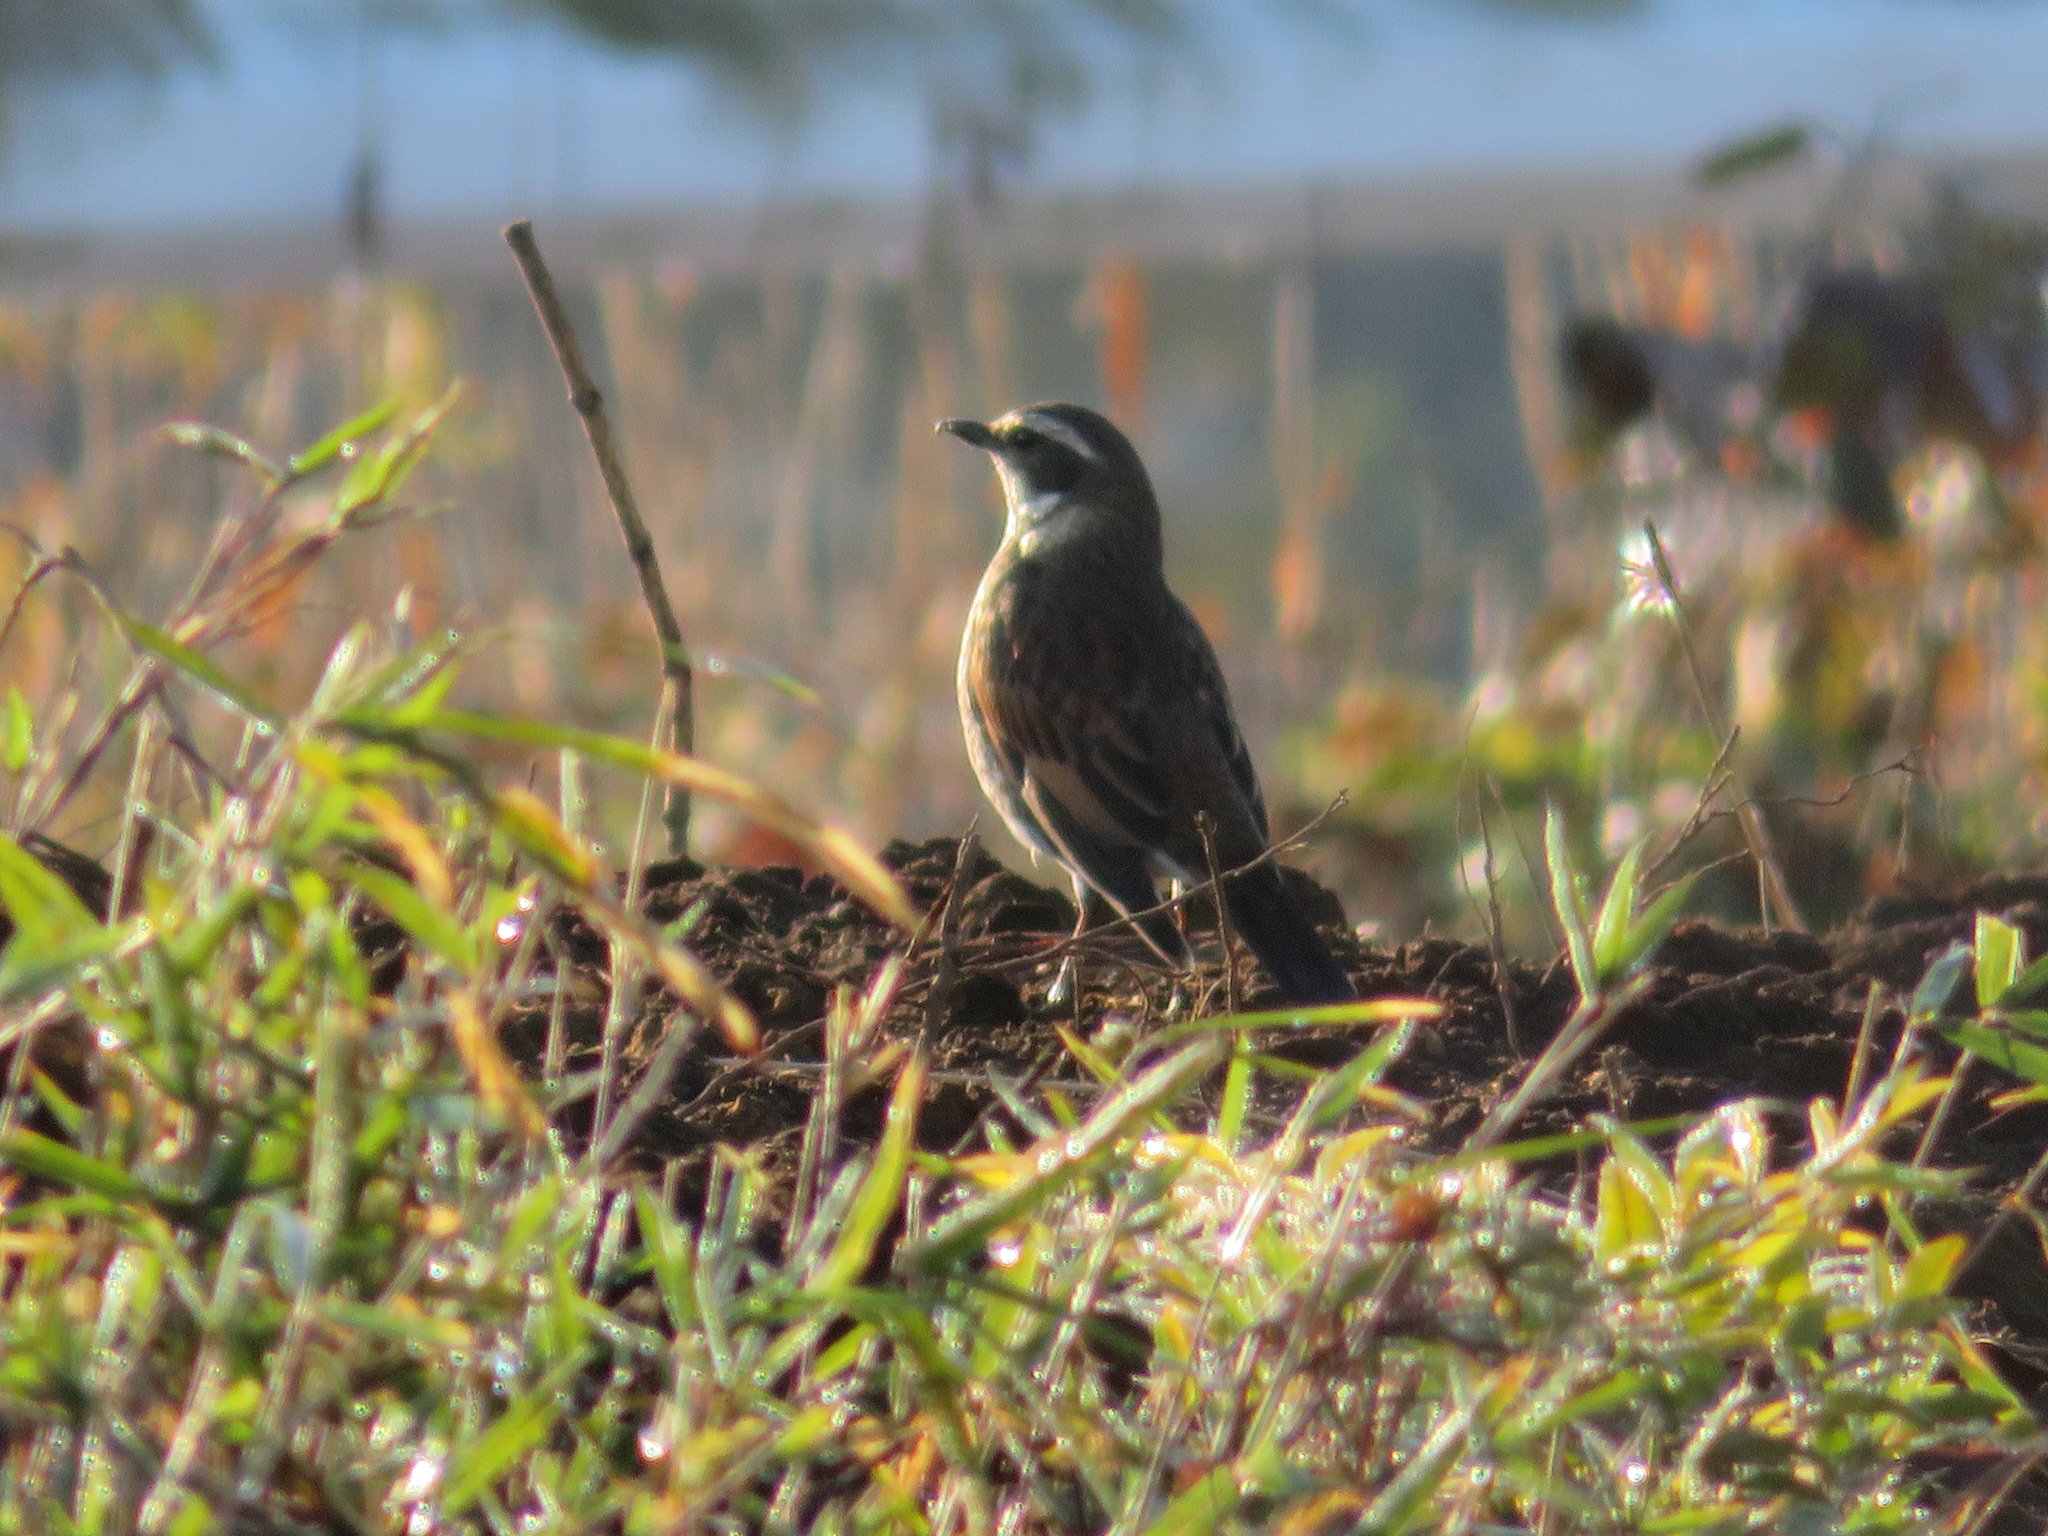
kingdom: Animalia
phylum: Chordata
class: Aves
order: Passeriformes
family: Turdidae
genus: Turdus
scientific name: Turdus eunomus
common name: Dusky thrush
